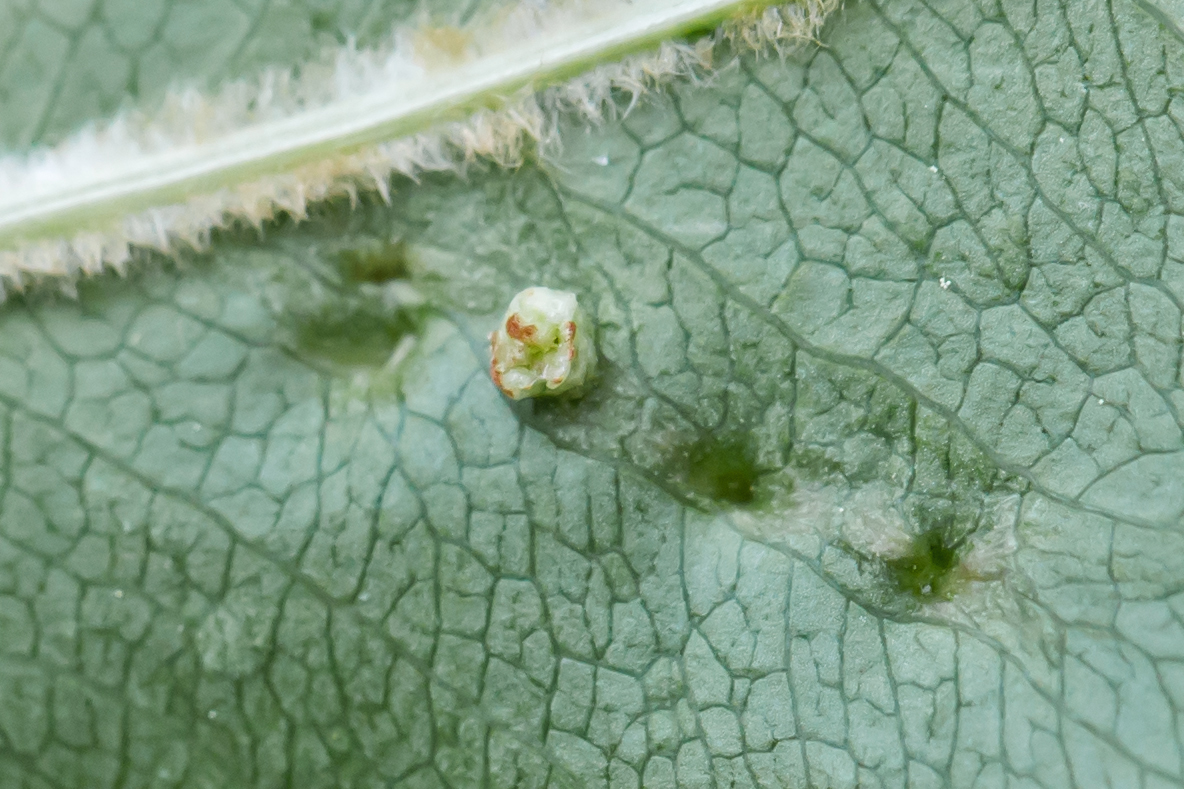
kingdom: Animalia
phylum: Arthropoda
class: Arachnida
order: Trombidiformes
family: Eriophyidae
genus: Eriophyes
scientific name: Eriophyes
